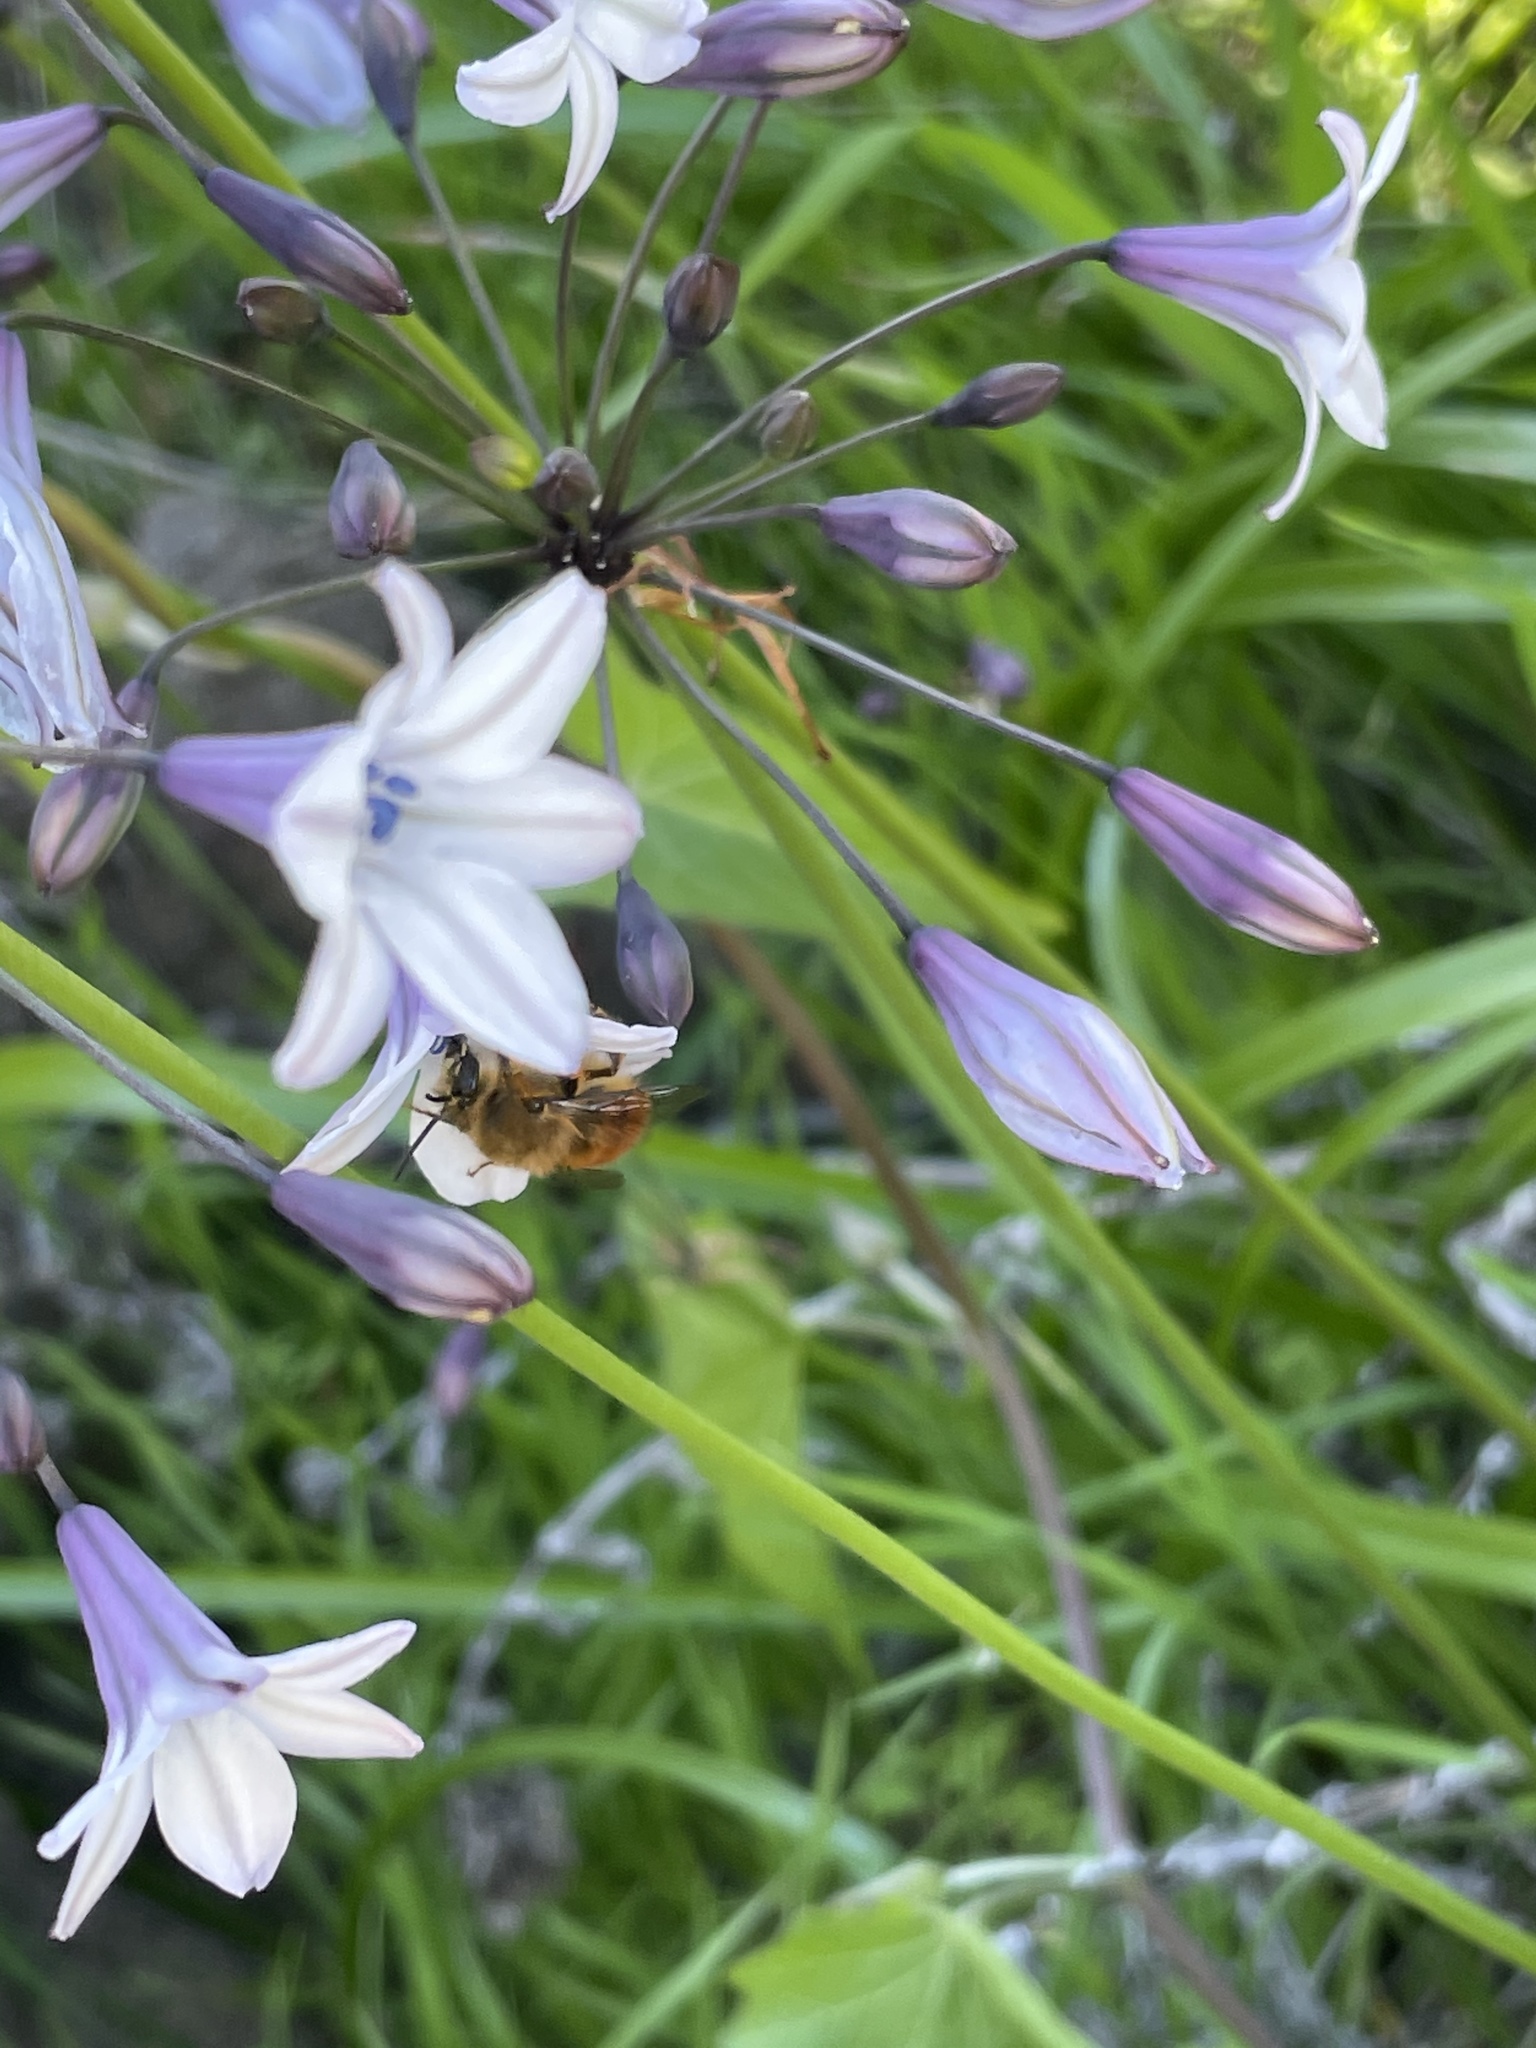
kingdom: Animalia
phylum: Arthropoda
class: Insecta
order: Hymenoptera
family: Apidae
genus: Habropoda
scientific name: Habropoda depressa
